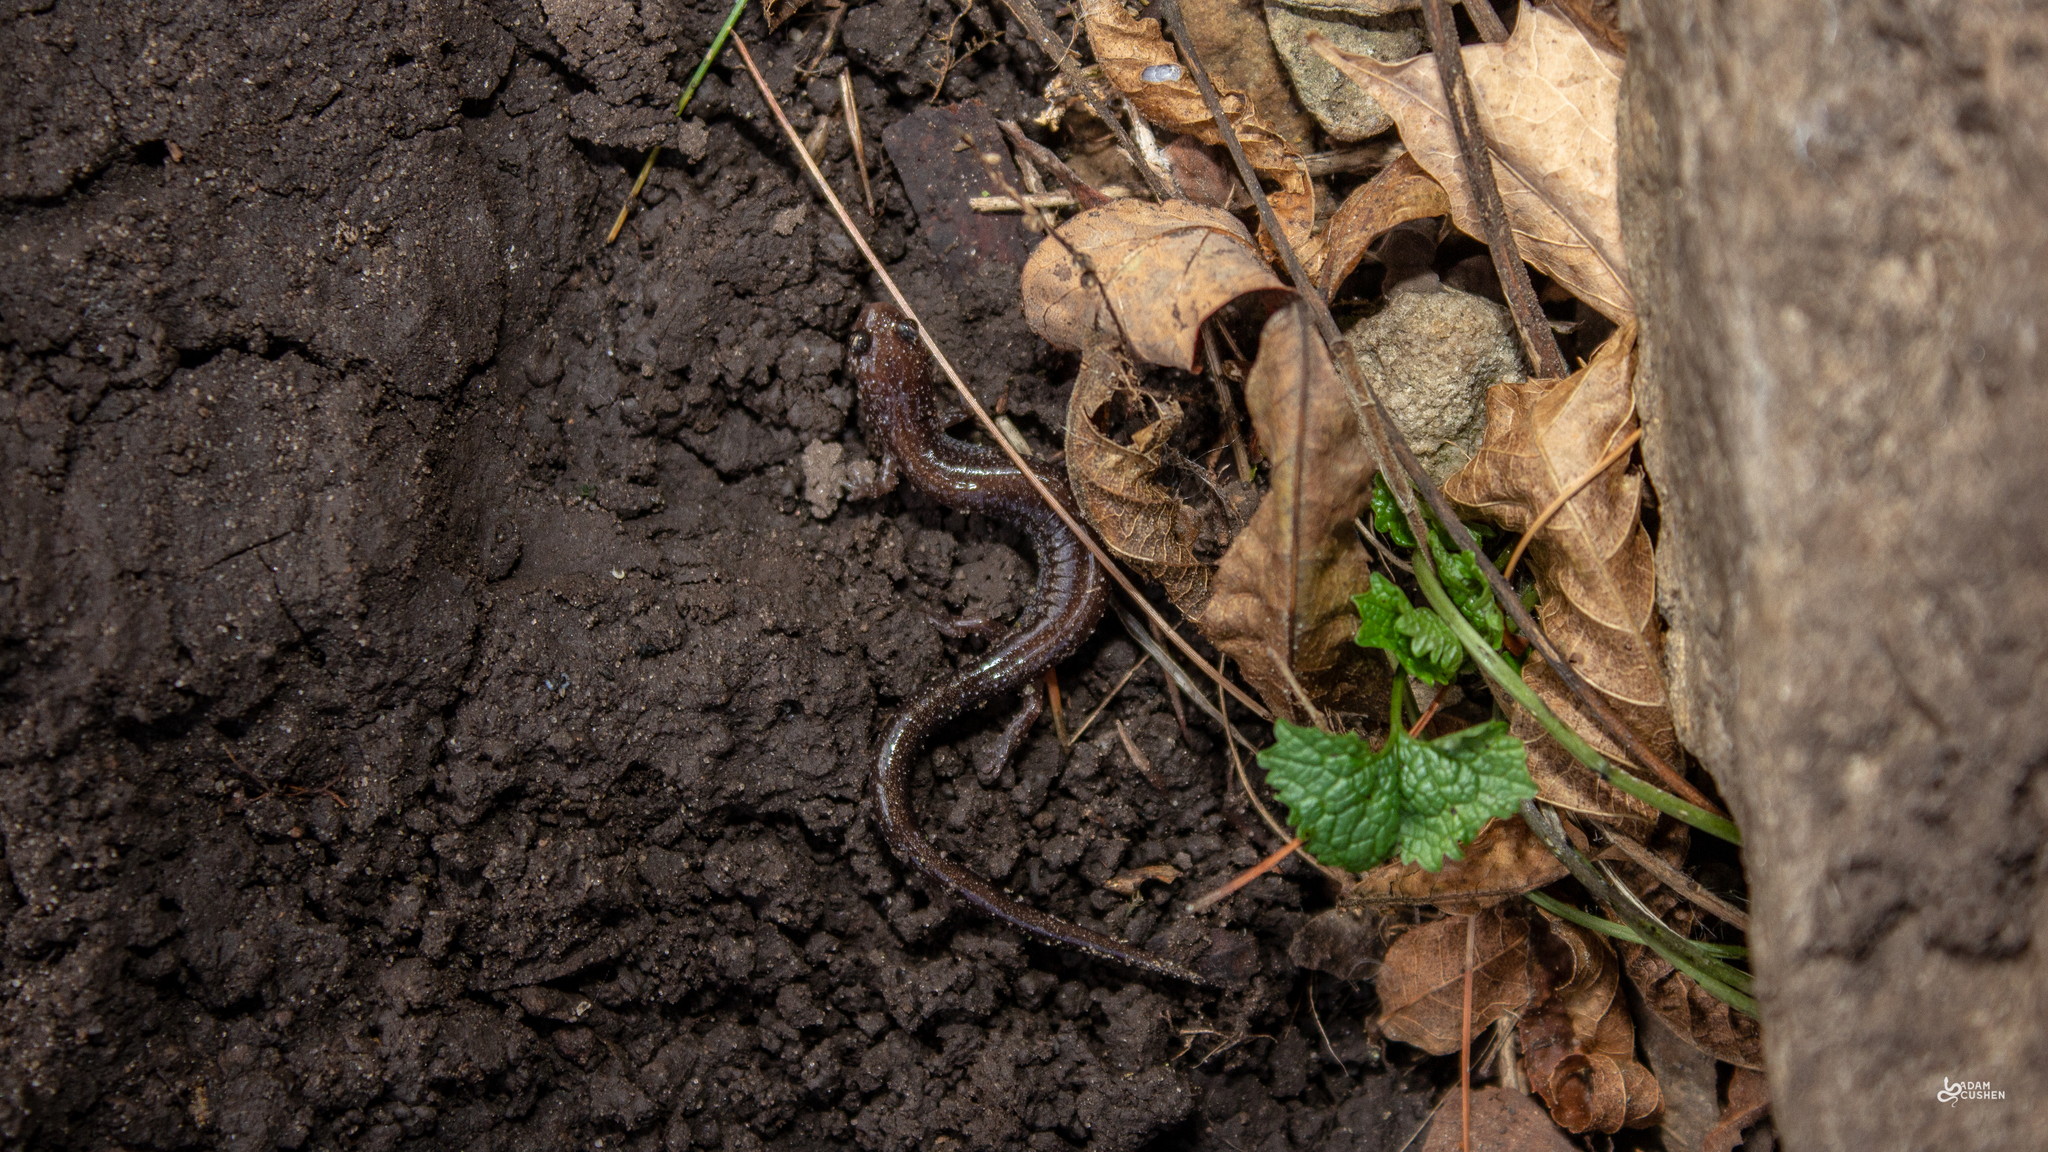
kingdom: Animalia
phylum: Chordata
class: Amphibia
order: Caudata
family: Plethodontidae
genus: Plethodon
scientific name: Plethodon cinereus
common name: Redback salamander
